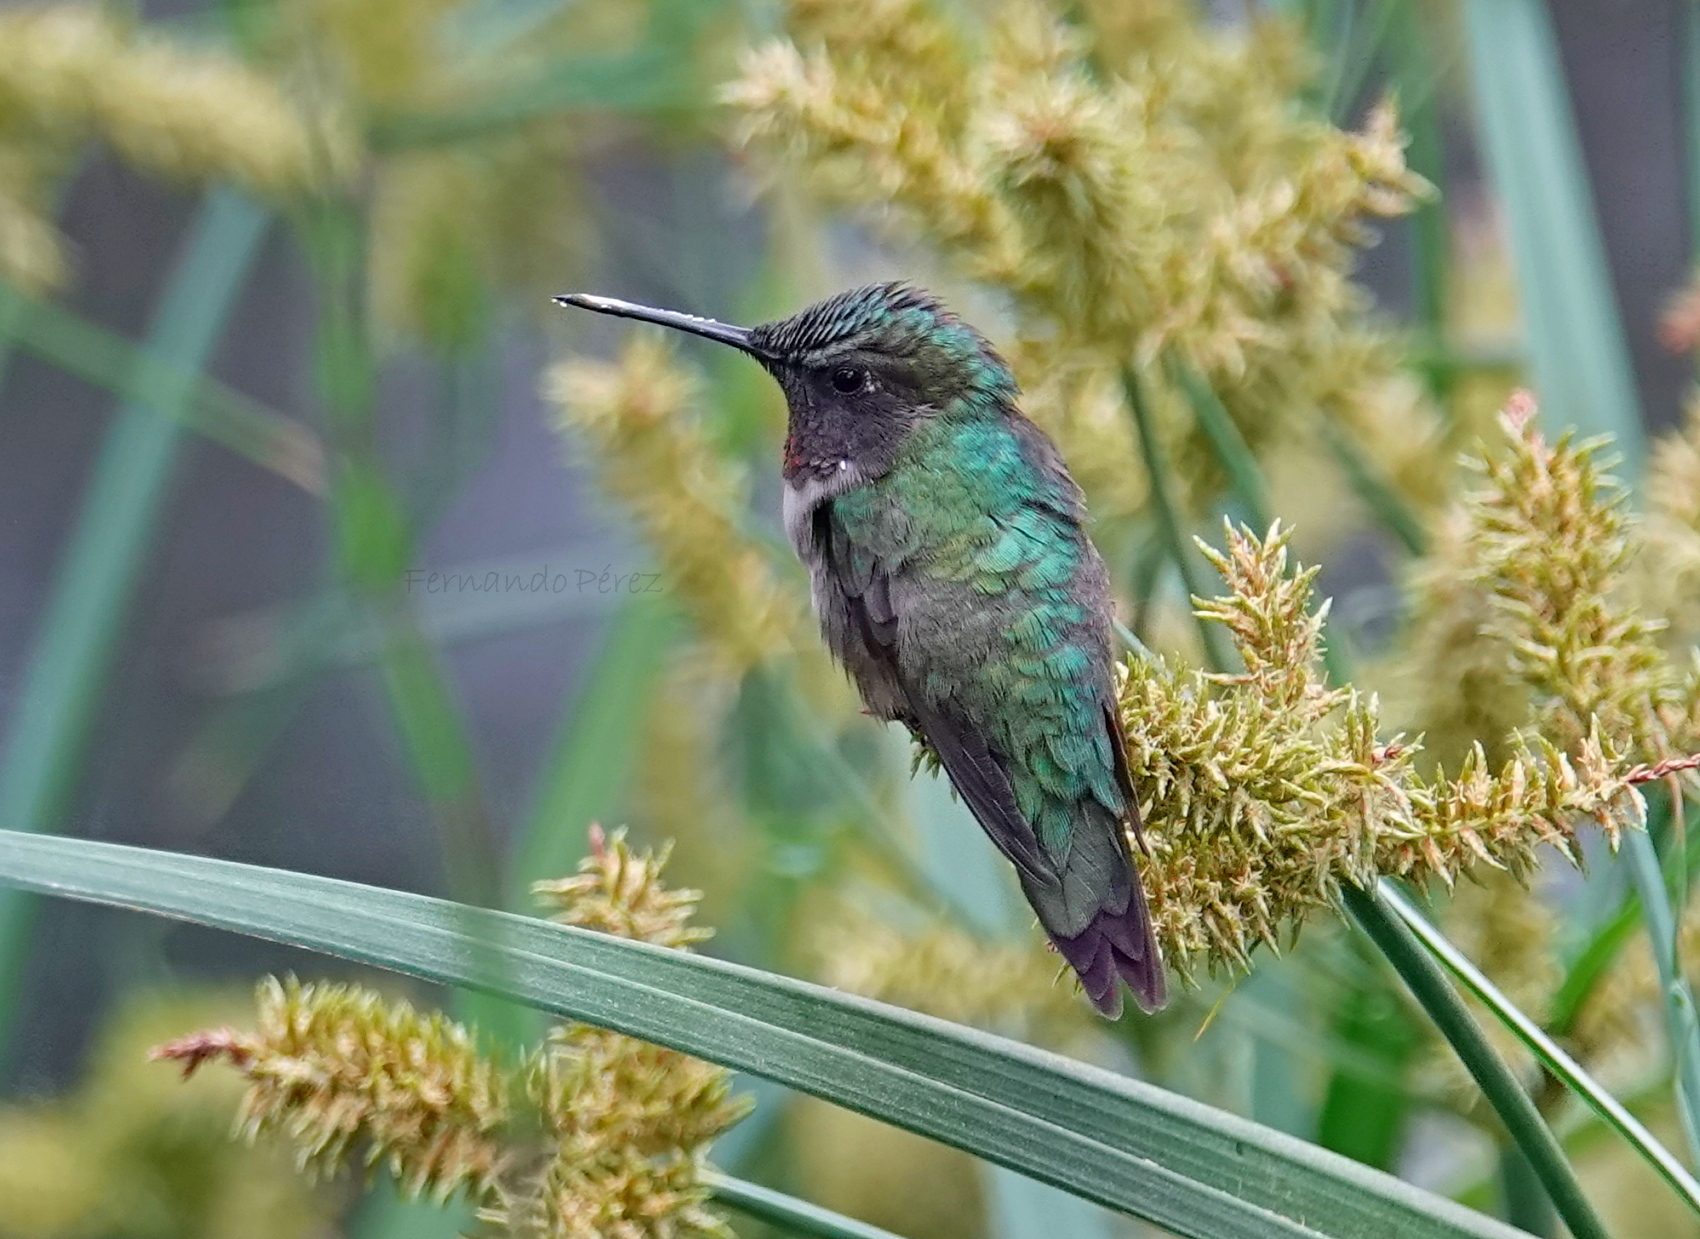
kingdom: Animalia
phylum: Chordata
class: Aves
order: Apodiformes
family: Trochilidae
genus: Archilochus
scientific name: Archilochus colubris
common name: Ruby-throated hummingbird
